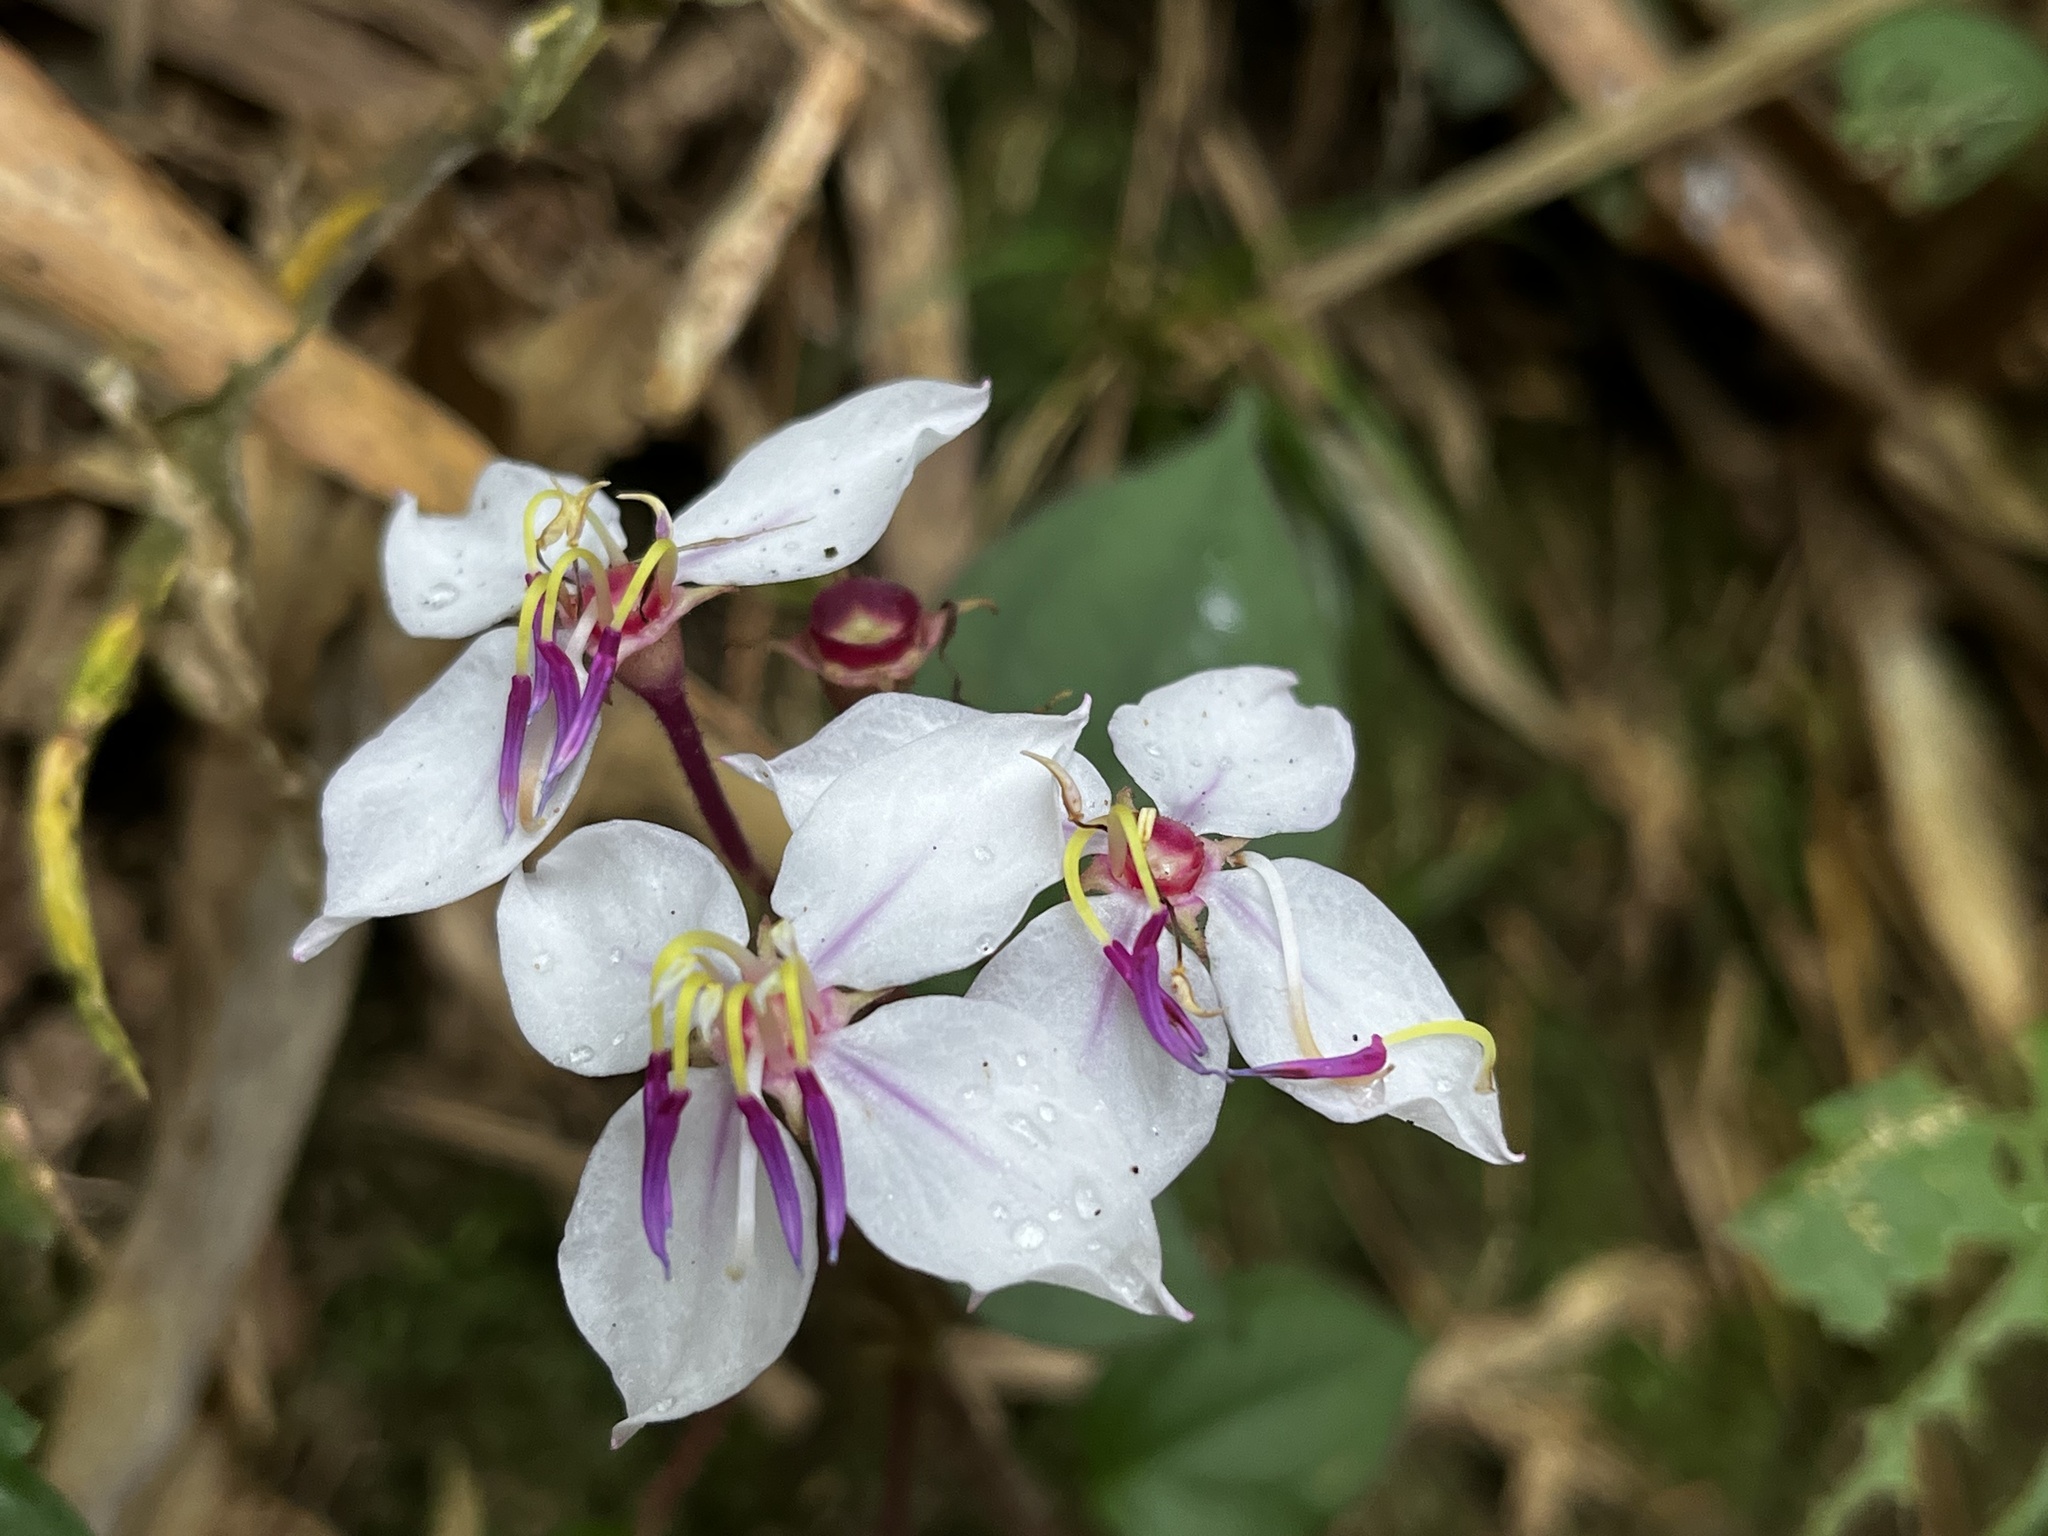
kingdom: Plantae
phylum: Tracheophyta
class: Magnoliopsida
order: Myrtales
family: Melastomataceae
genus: Bredia
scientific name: Bredia hirsuta
